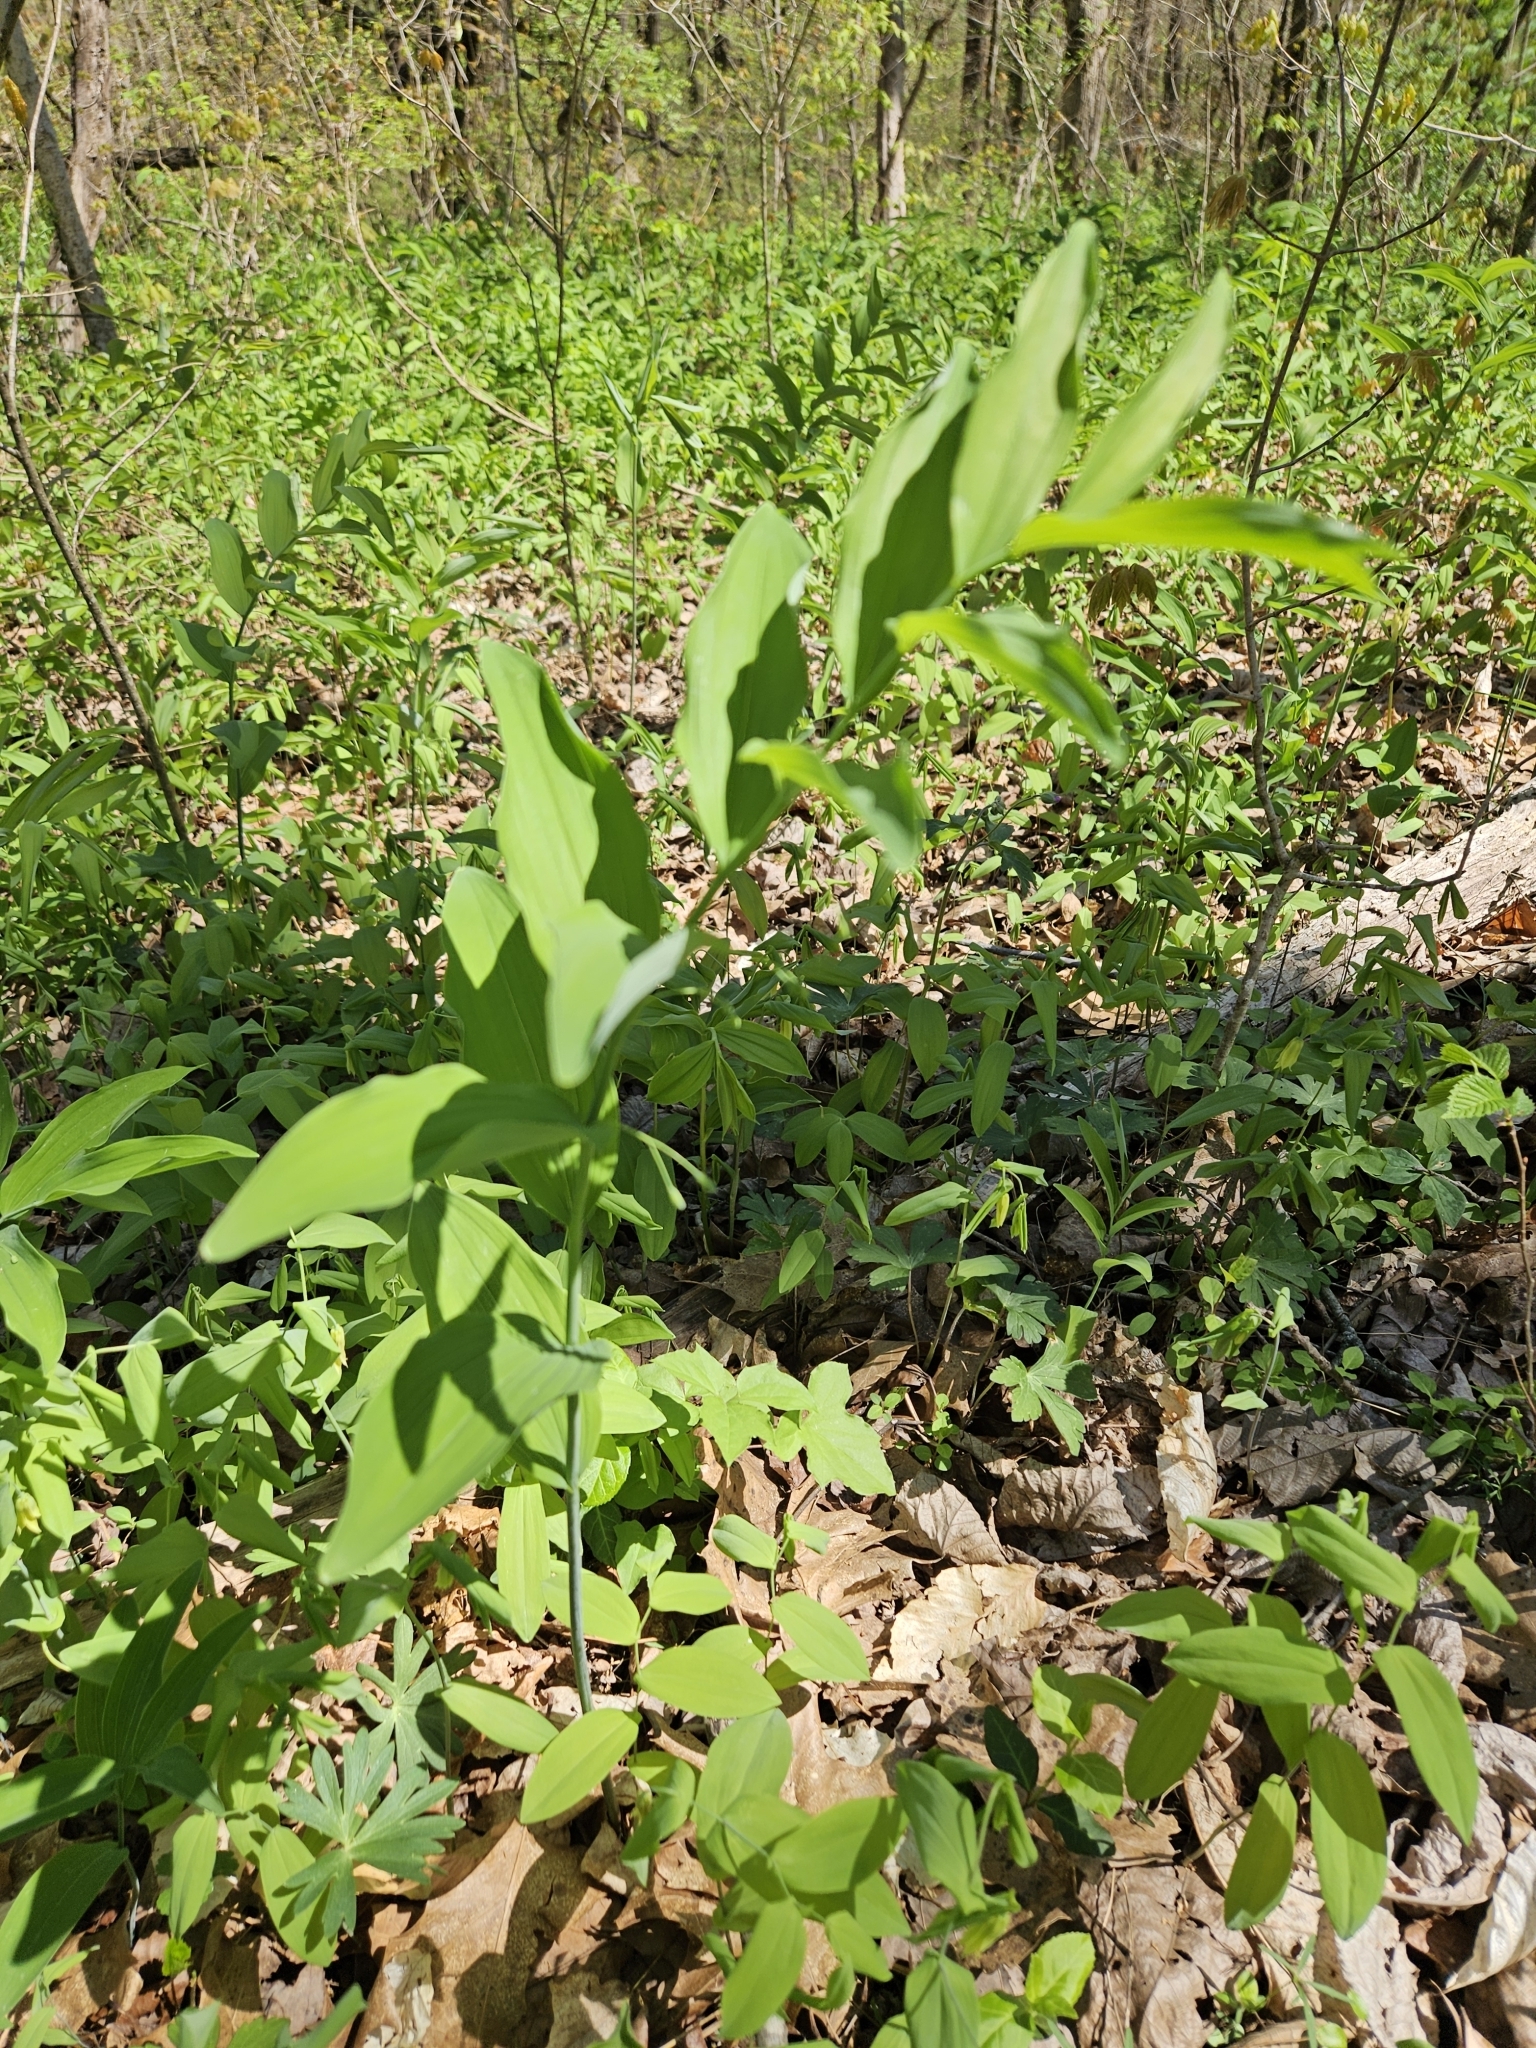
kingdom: Plantae
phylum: Tracheophyta
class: Liliopsida
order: Asparagales
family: Asparagaceae
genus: Polygonatum
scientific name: Polygonatum biflorum
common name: American solomon's-seal
